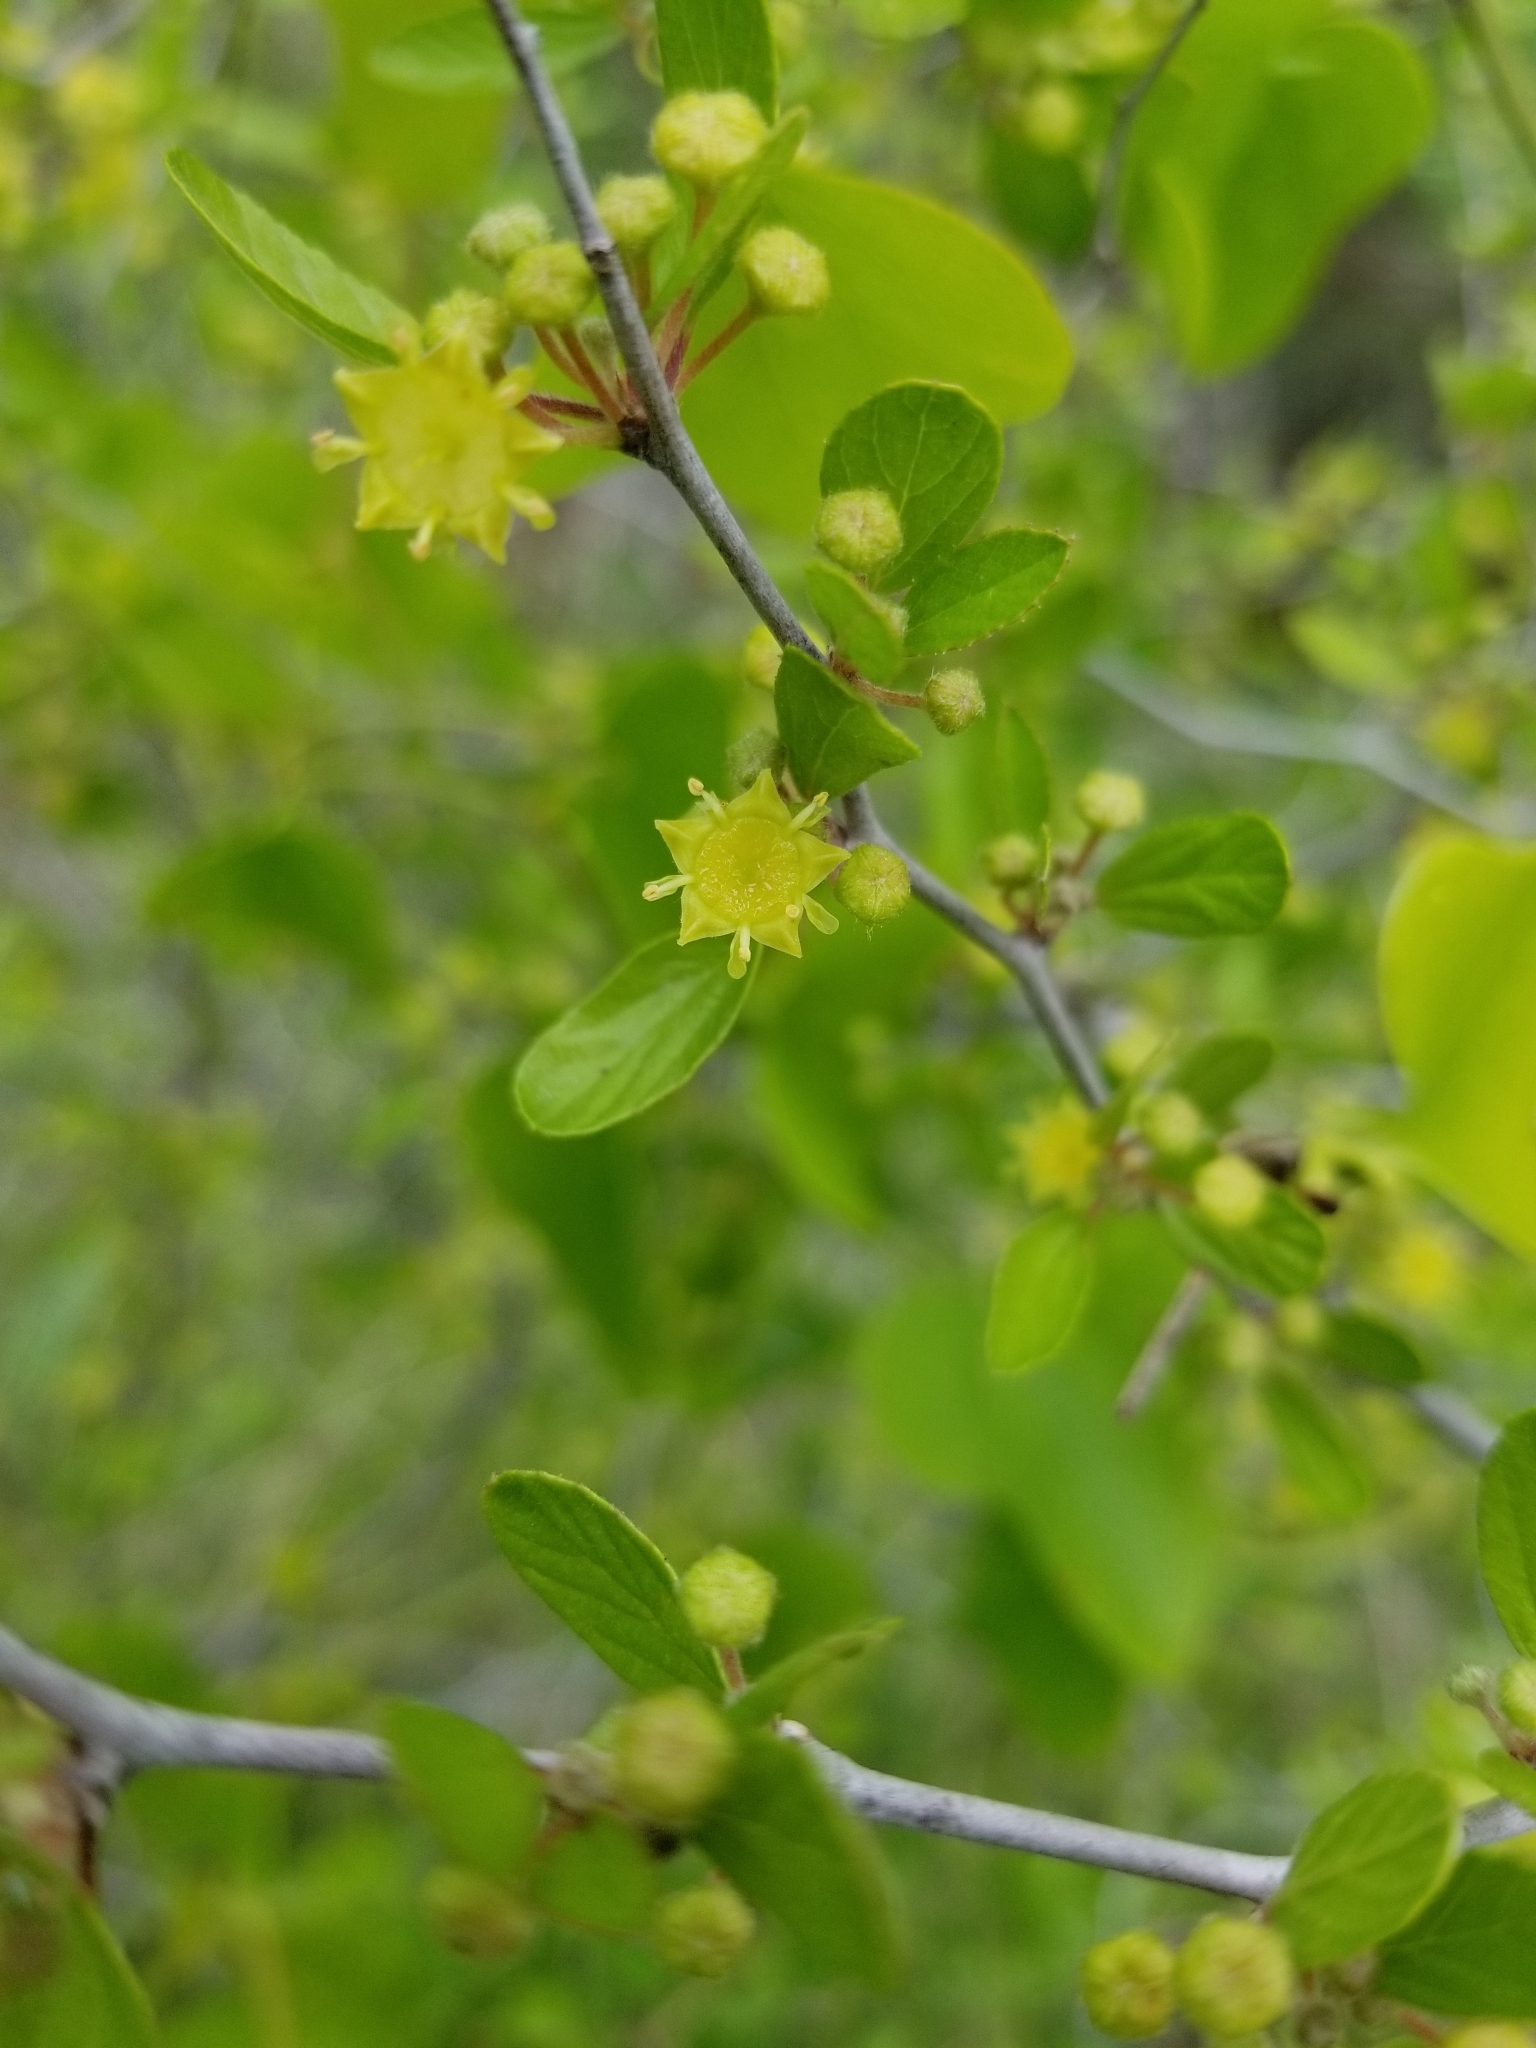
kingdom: Plantae
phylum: Tracheophyta
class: Magnoliopsida
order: Rosales
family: Rhamnaceae
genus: Colubrina
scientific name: Colubrina texensis
